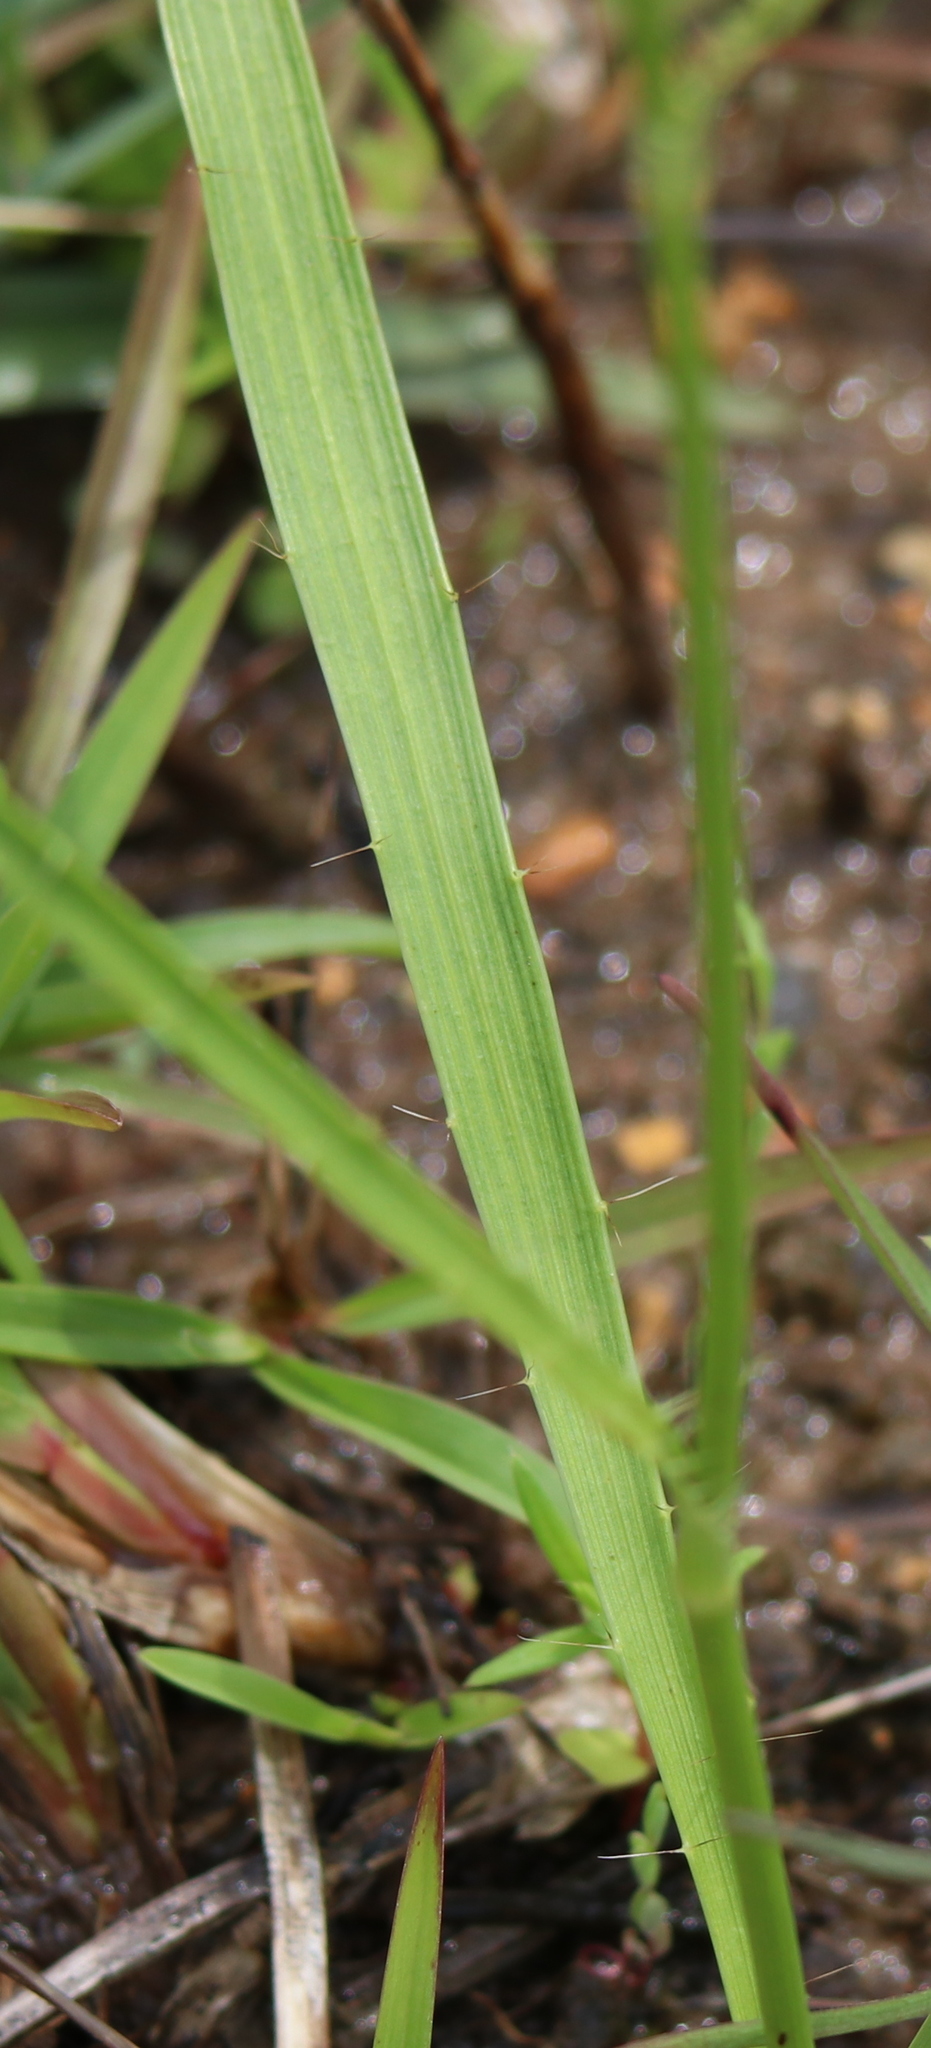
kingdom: Plantae
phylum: Tracheophyta
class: Magnoliopsida
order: Apiales
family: Apiaceae
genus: Eryngium
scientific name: Eryngium yuccifolium
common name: Button eryngo
